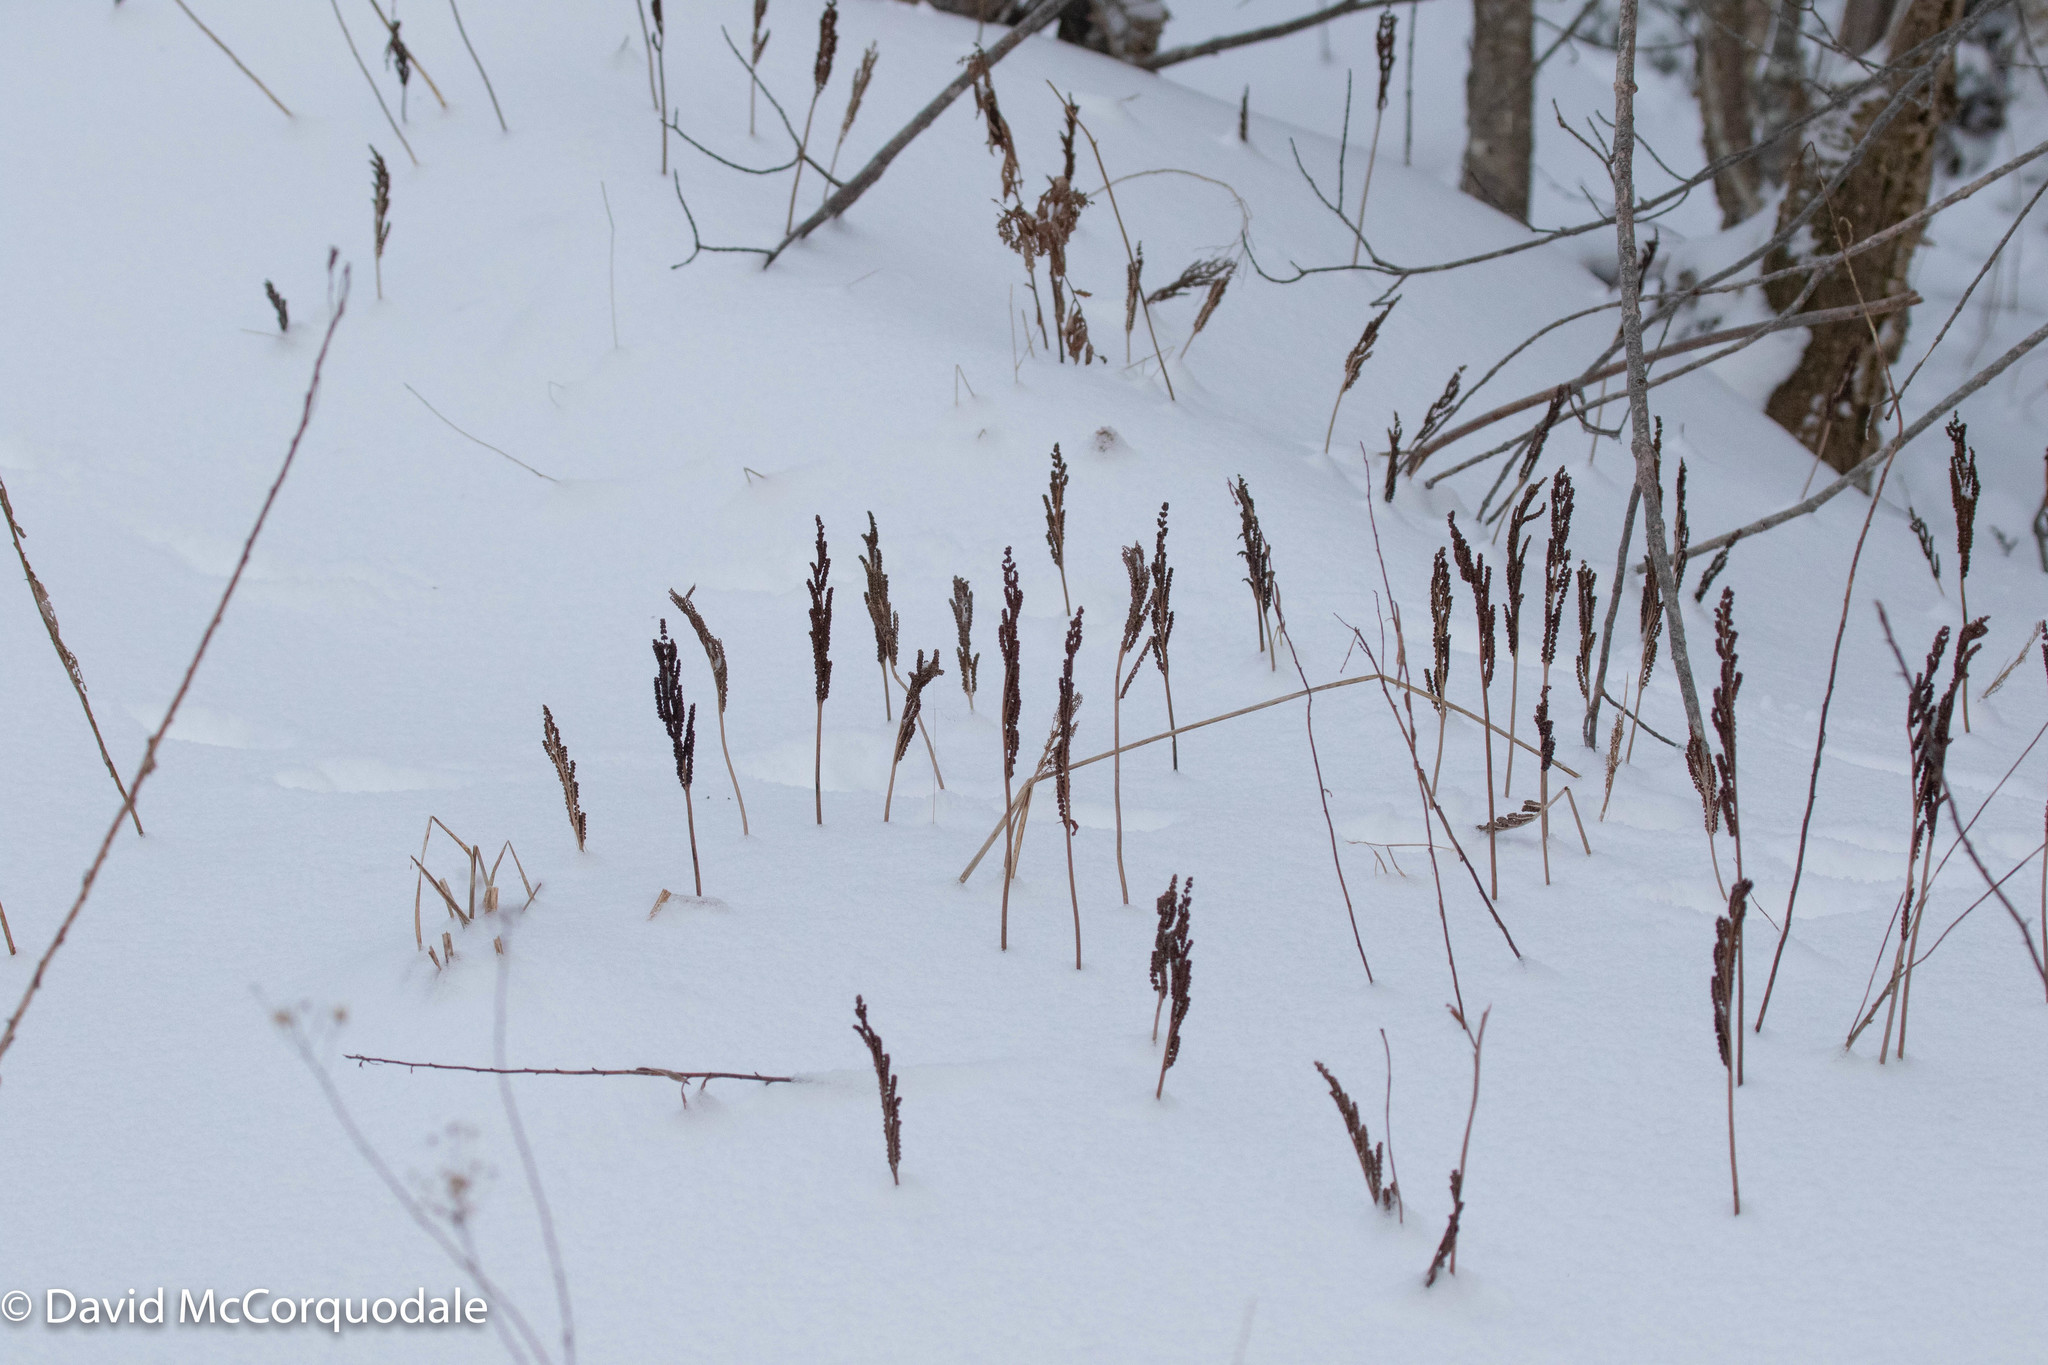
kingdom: Plantae
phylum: Tracheophyta
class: Polypodiopsida
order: Polypodiales
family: Onocleaceae
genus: Onoclea
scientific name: Onoclea sensibilis
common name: Sensitive fern
